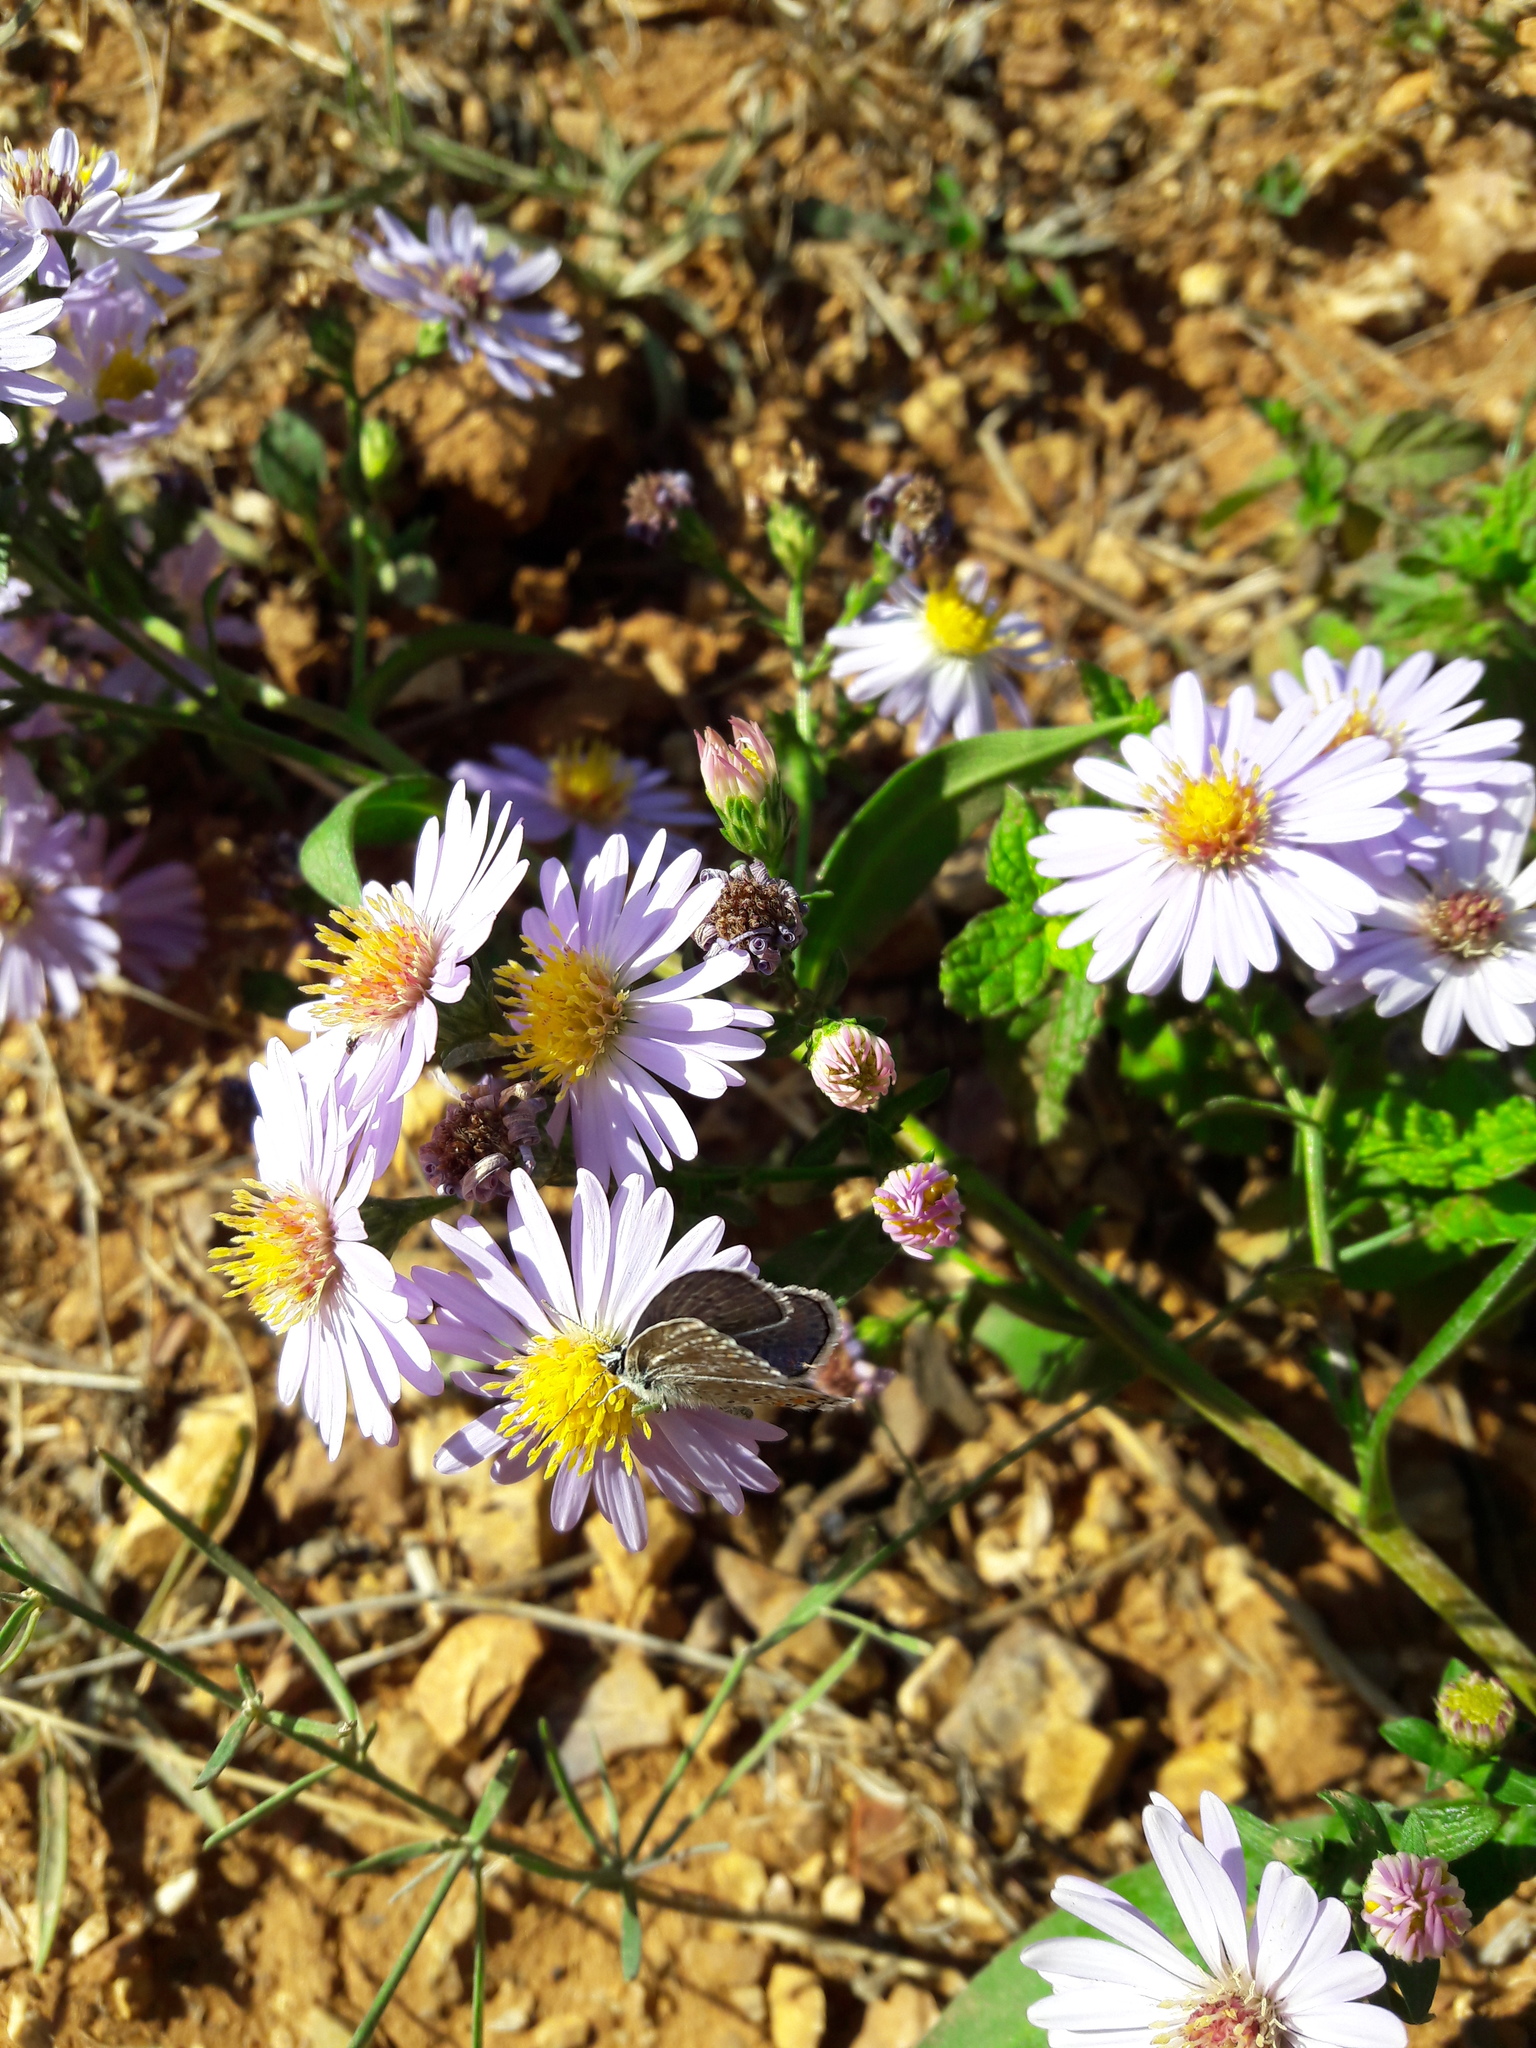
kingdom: Animalia
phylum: Arthropoda
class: Insecta
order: Lepidoptera
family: Lycaenidae
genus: Polyommatus
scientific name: Polyommatus icarus
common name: Common blue
